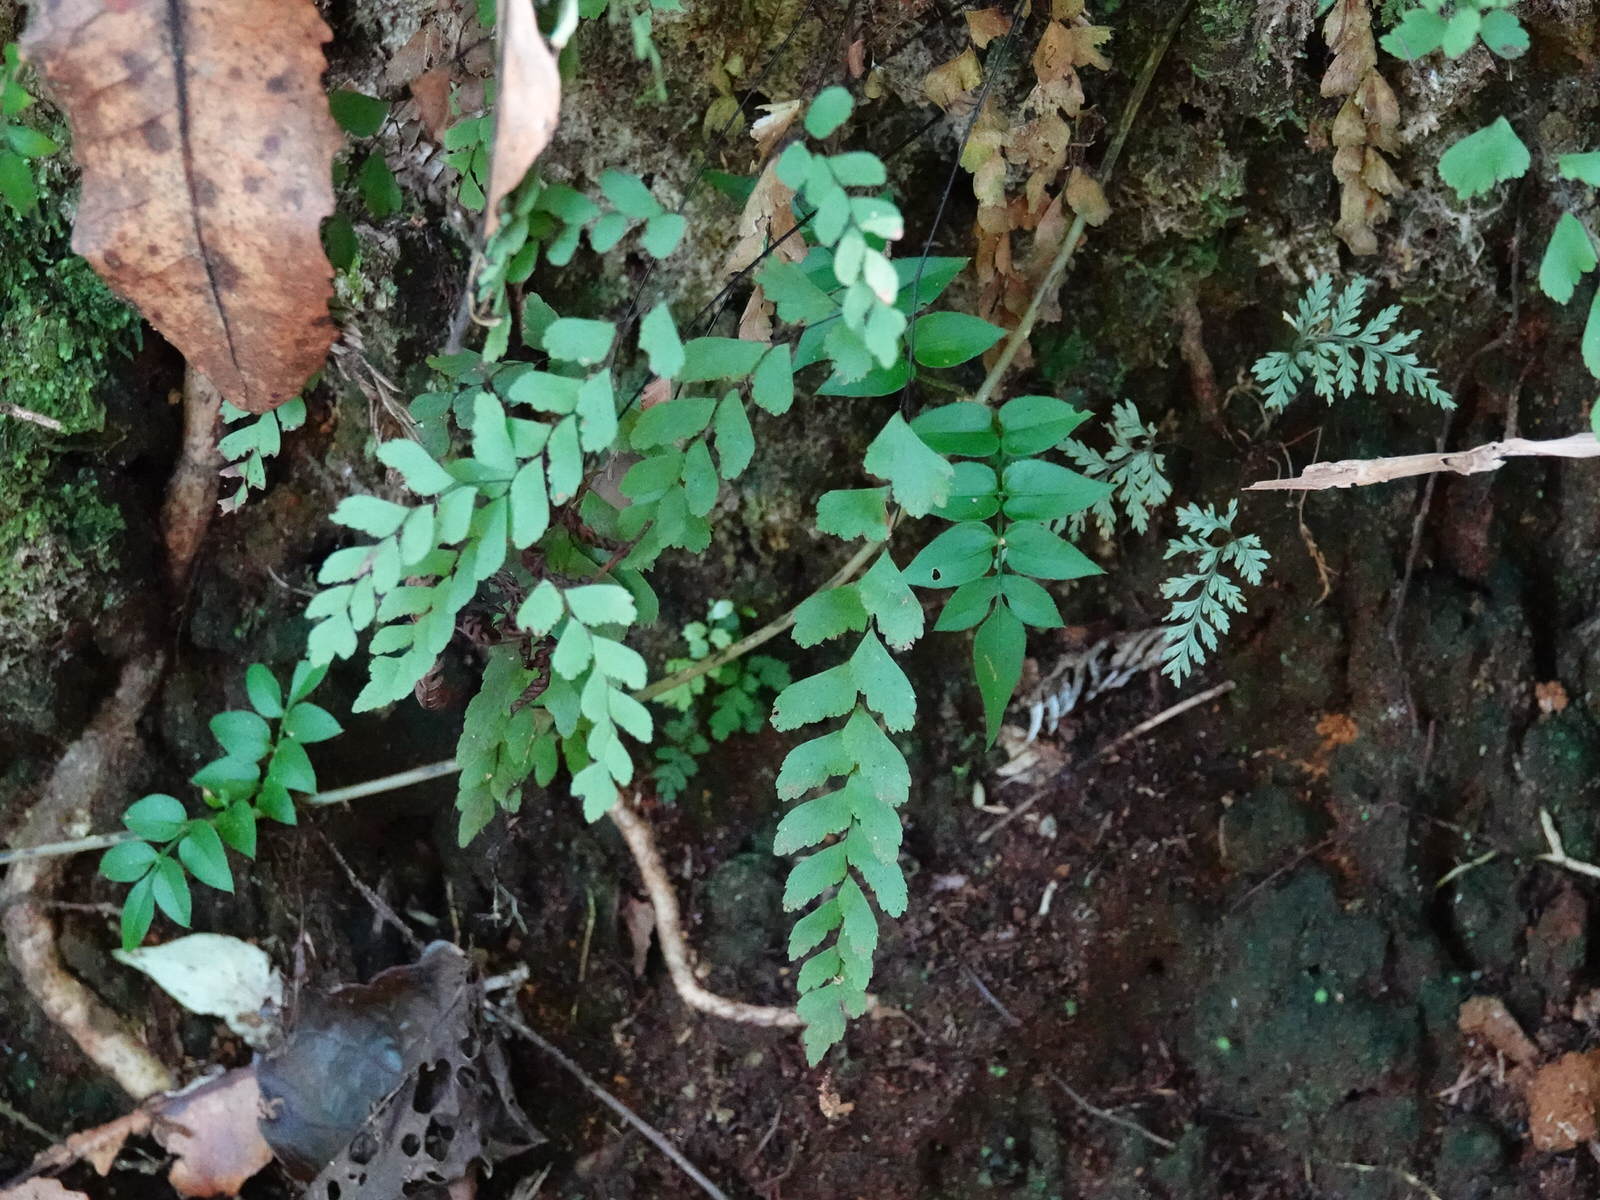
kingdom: Plantae
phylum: Tracheophyta
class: Polypodiopsida
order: Polypodiales
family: Pteridaceae
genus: Adiantum
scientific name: Adiantum cunninghamii
